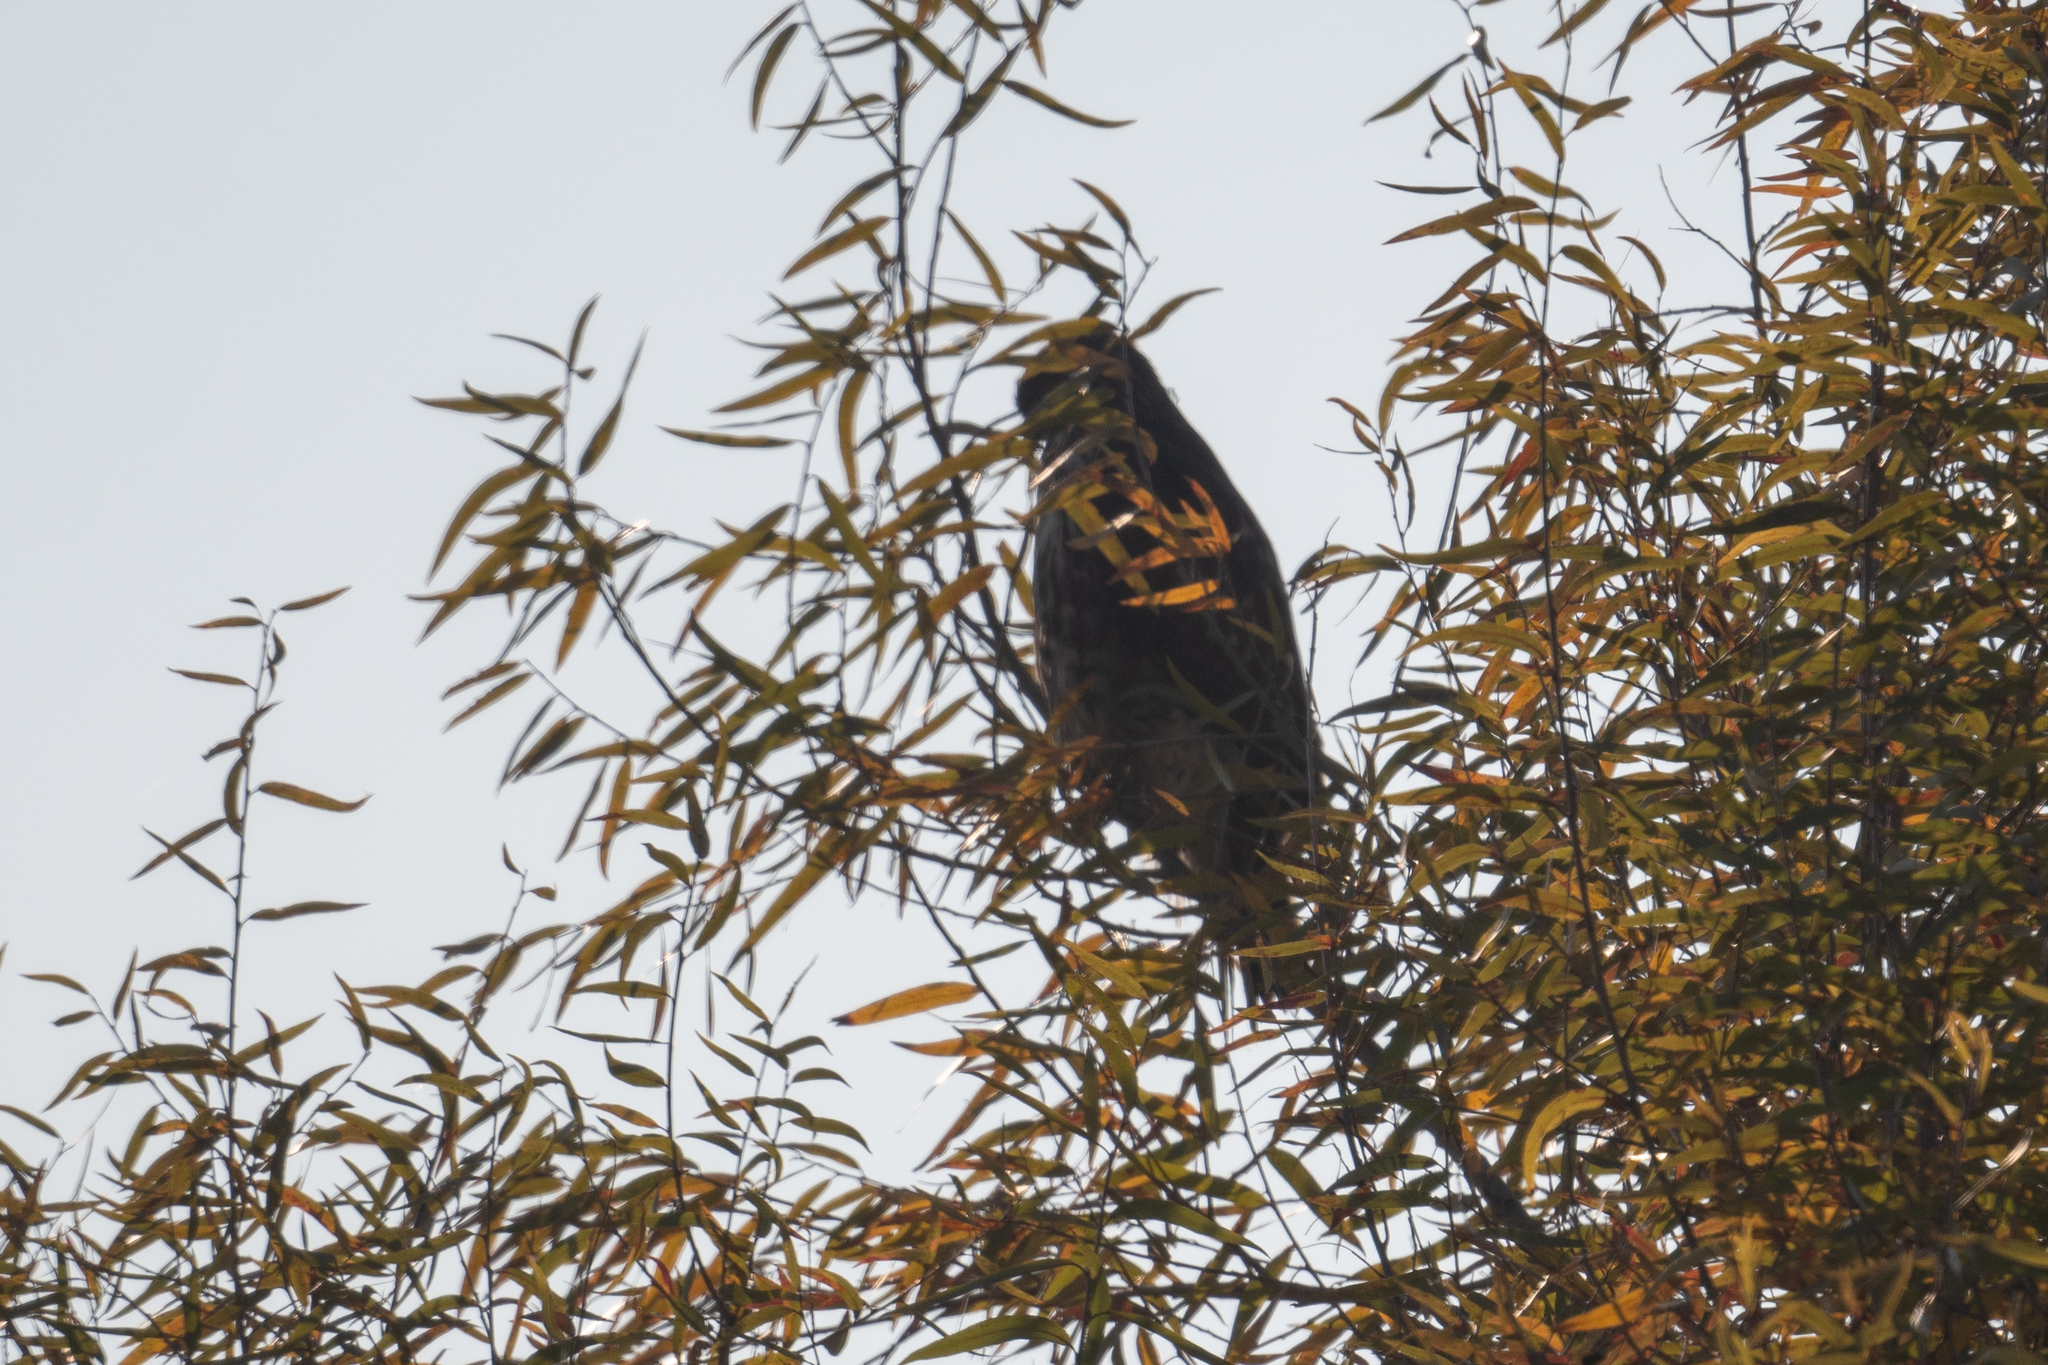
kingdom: Animalia
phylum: Chordata
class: Aves
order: Accipitriformes
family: Accipitridae
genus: Buteo
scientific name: Buteo jamaicensis
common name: Red-tailed hawk
